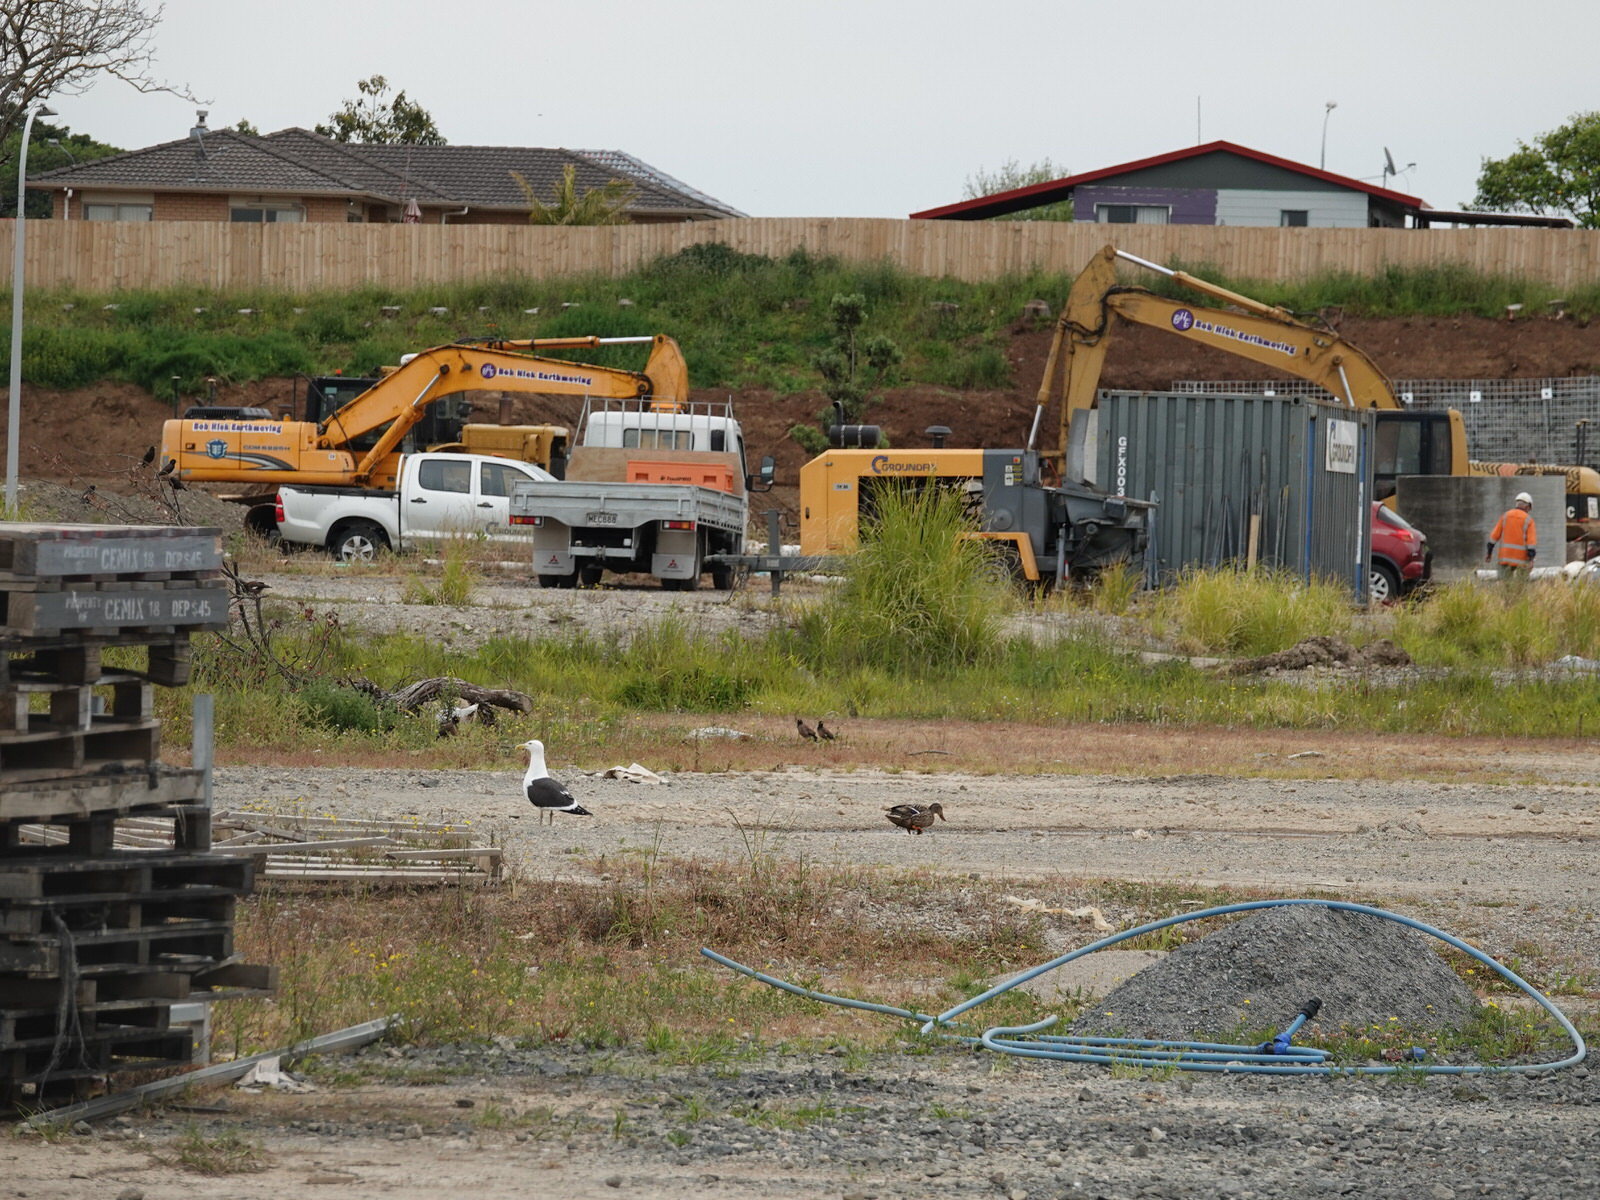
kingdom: Animalia
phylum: Chordata
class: Aves
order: Anseriformes
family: Anatidae
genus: Anas
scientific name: Anas
